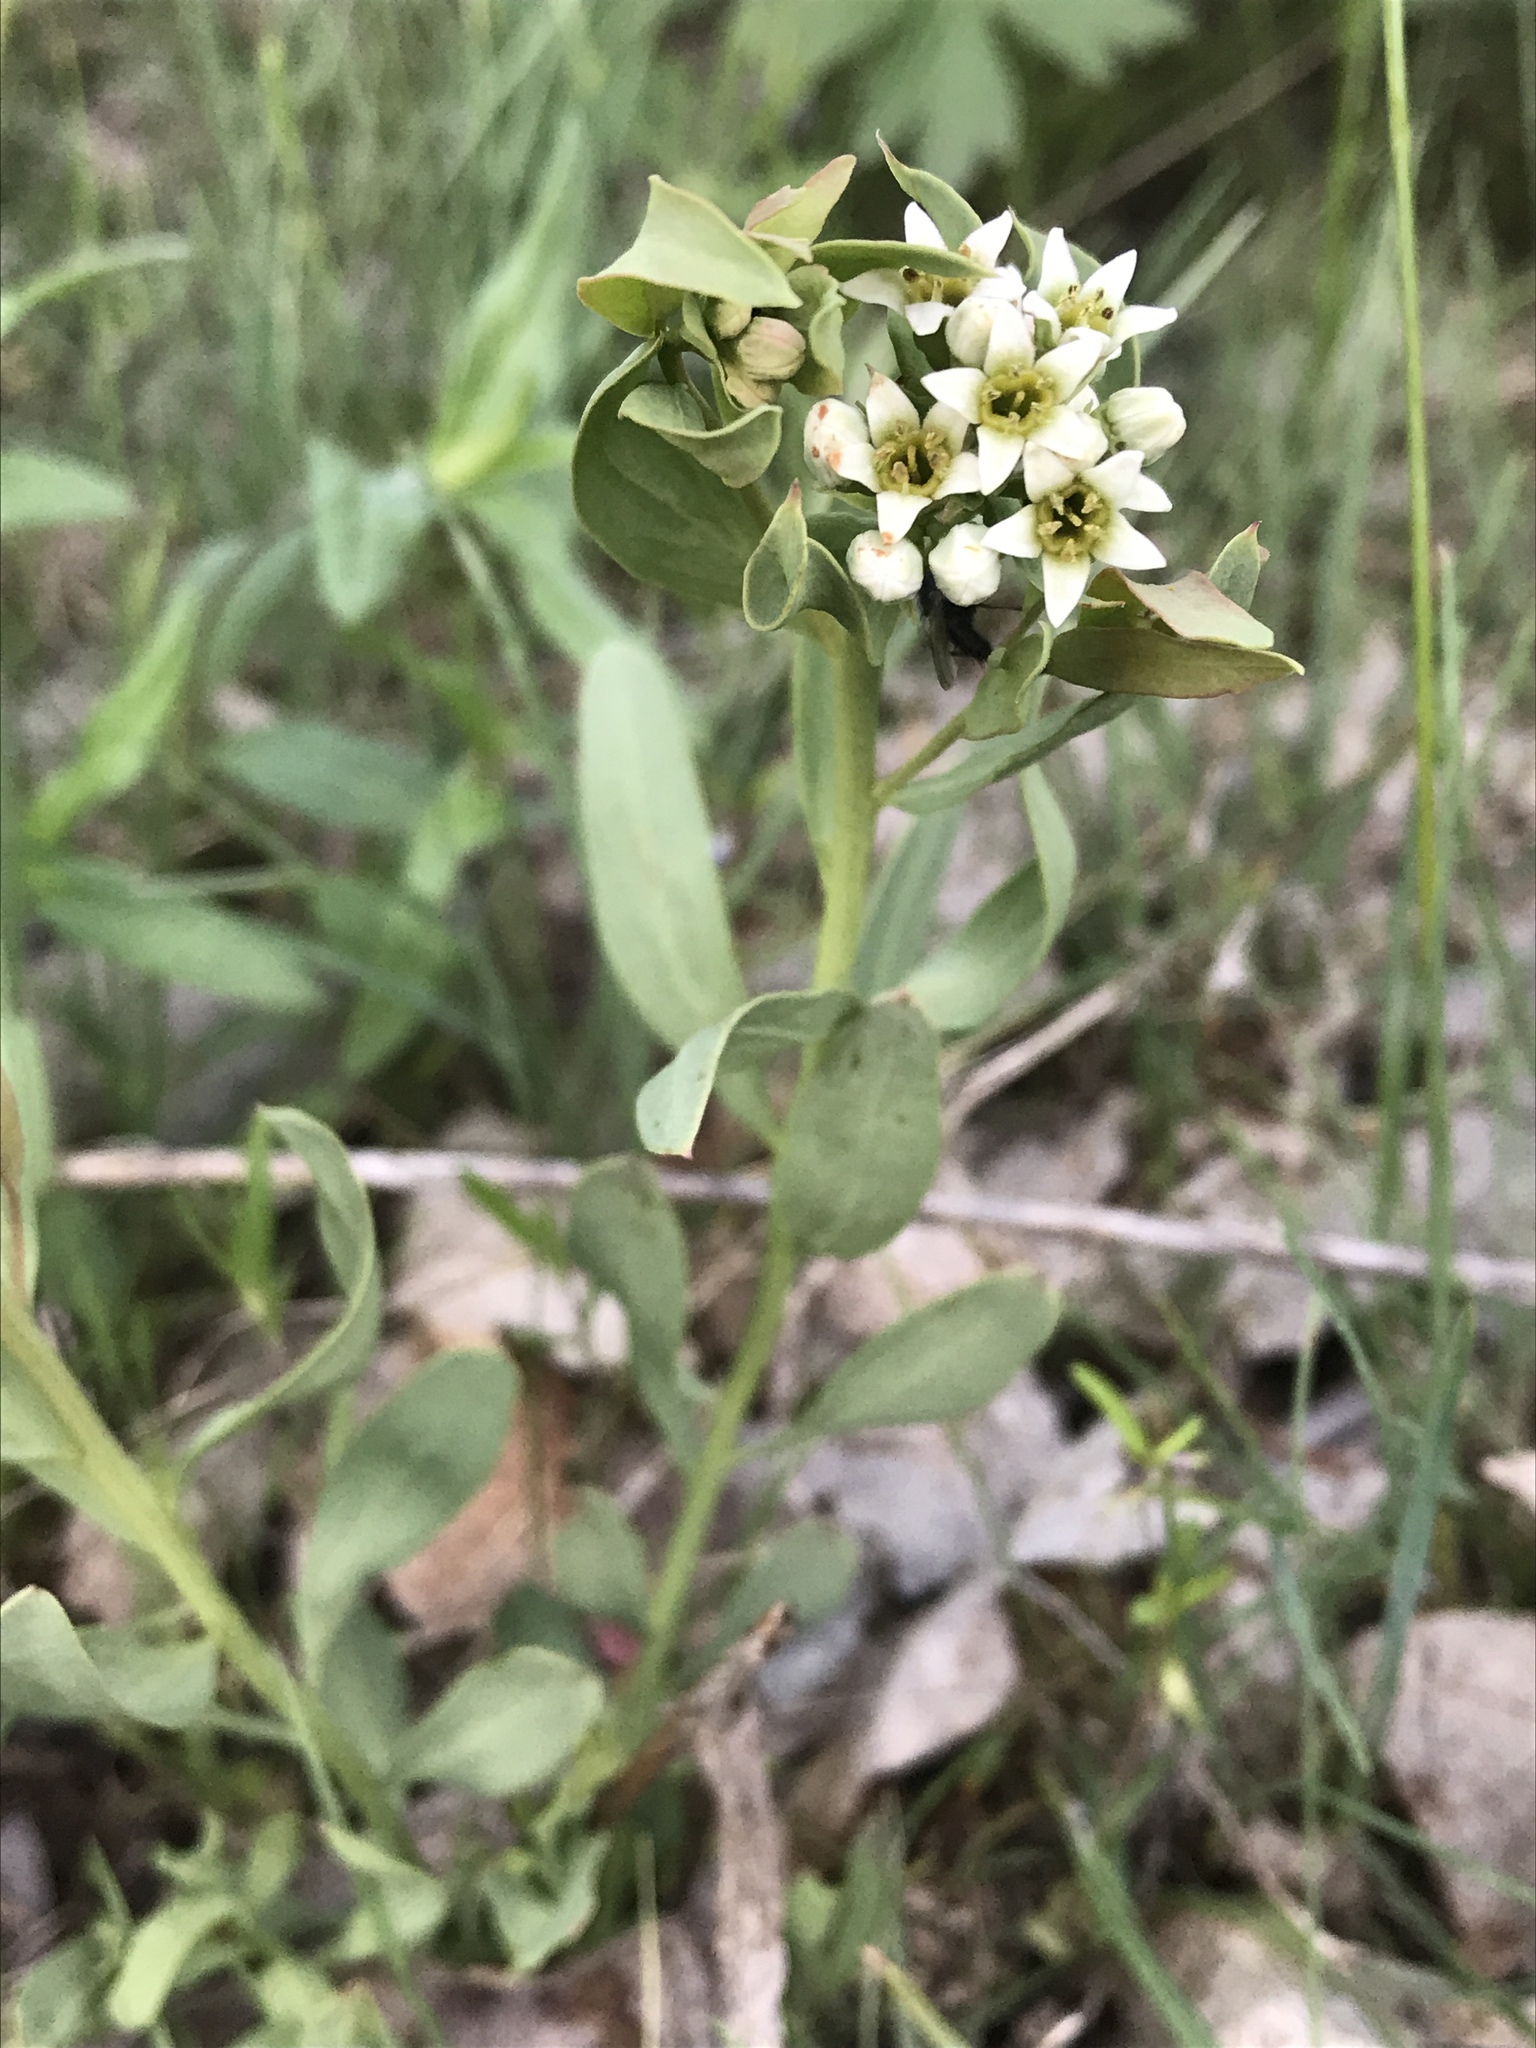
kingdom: Plantae
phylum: Tracheophyta
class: Magnoliopsida
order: Santalales
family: Comandraceae
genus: Comandra
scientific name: Comandra umbellata
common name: Bastard toadflax
